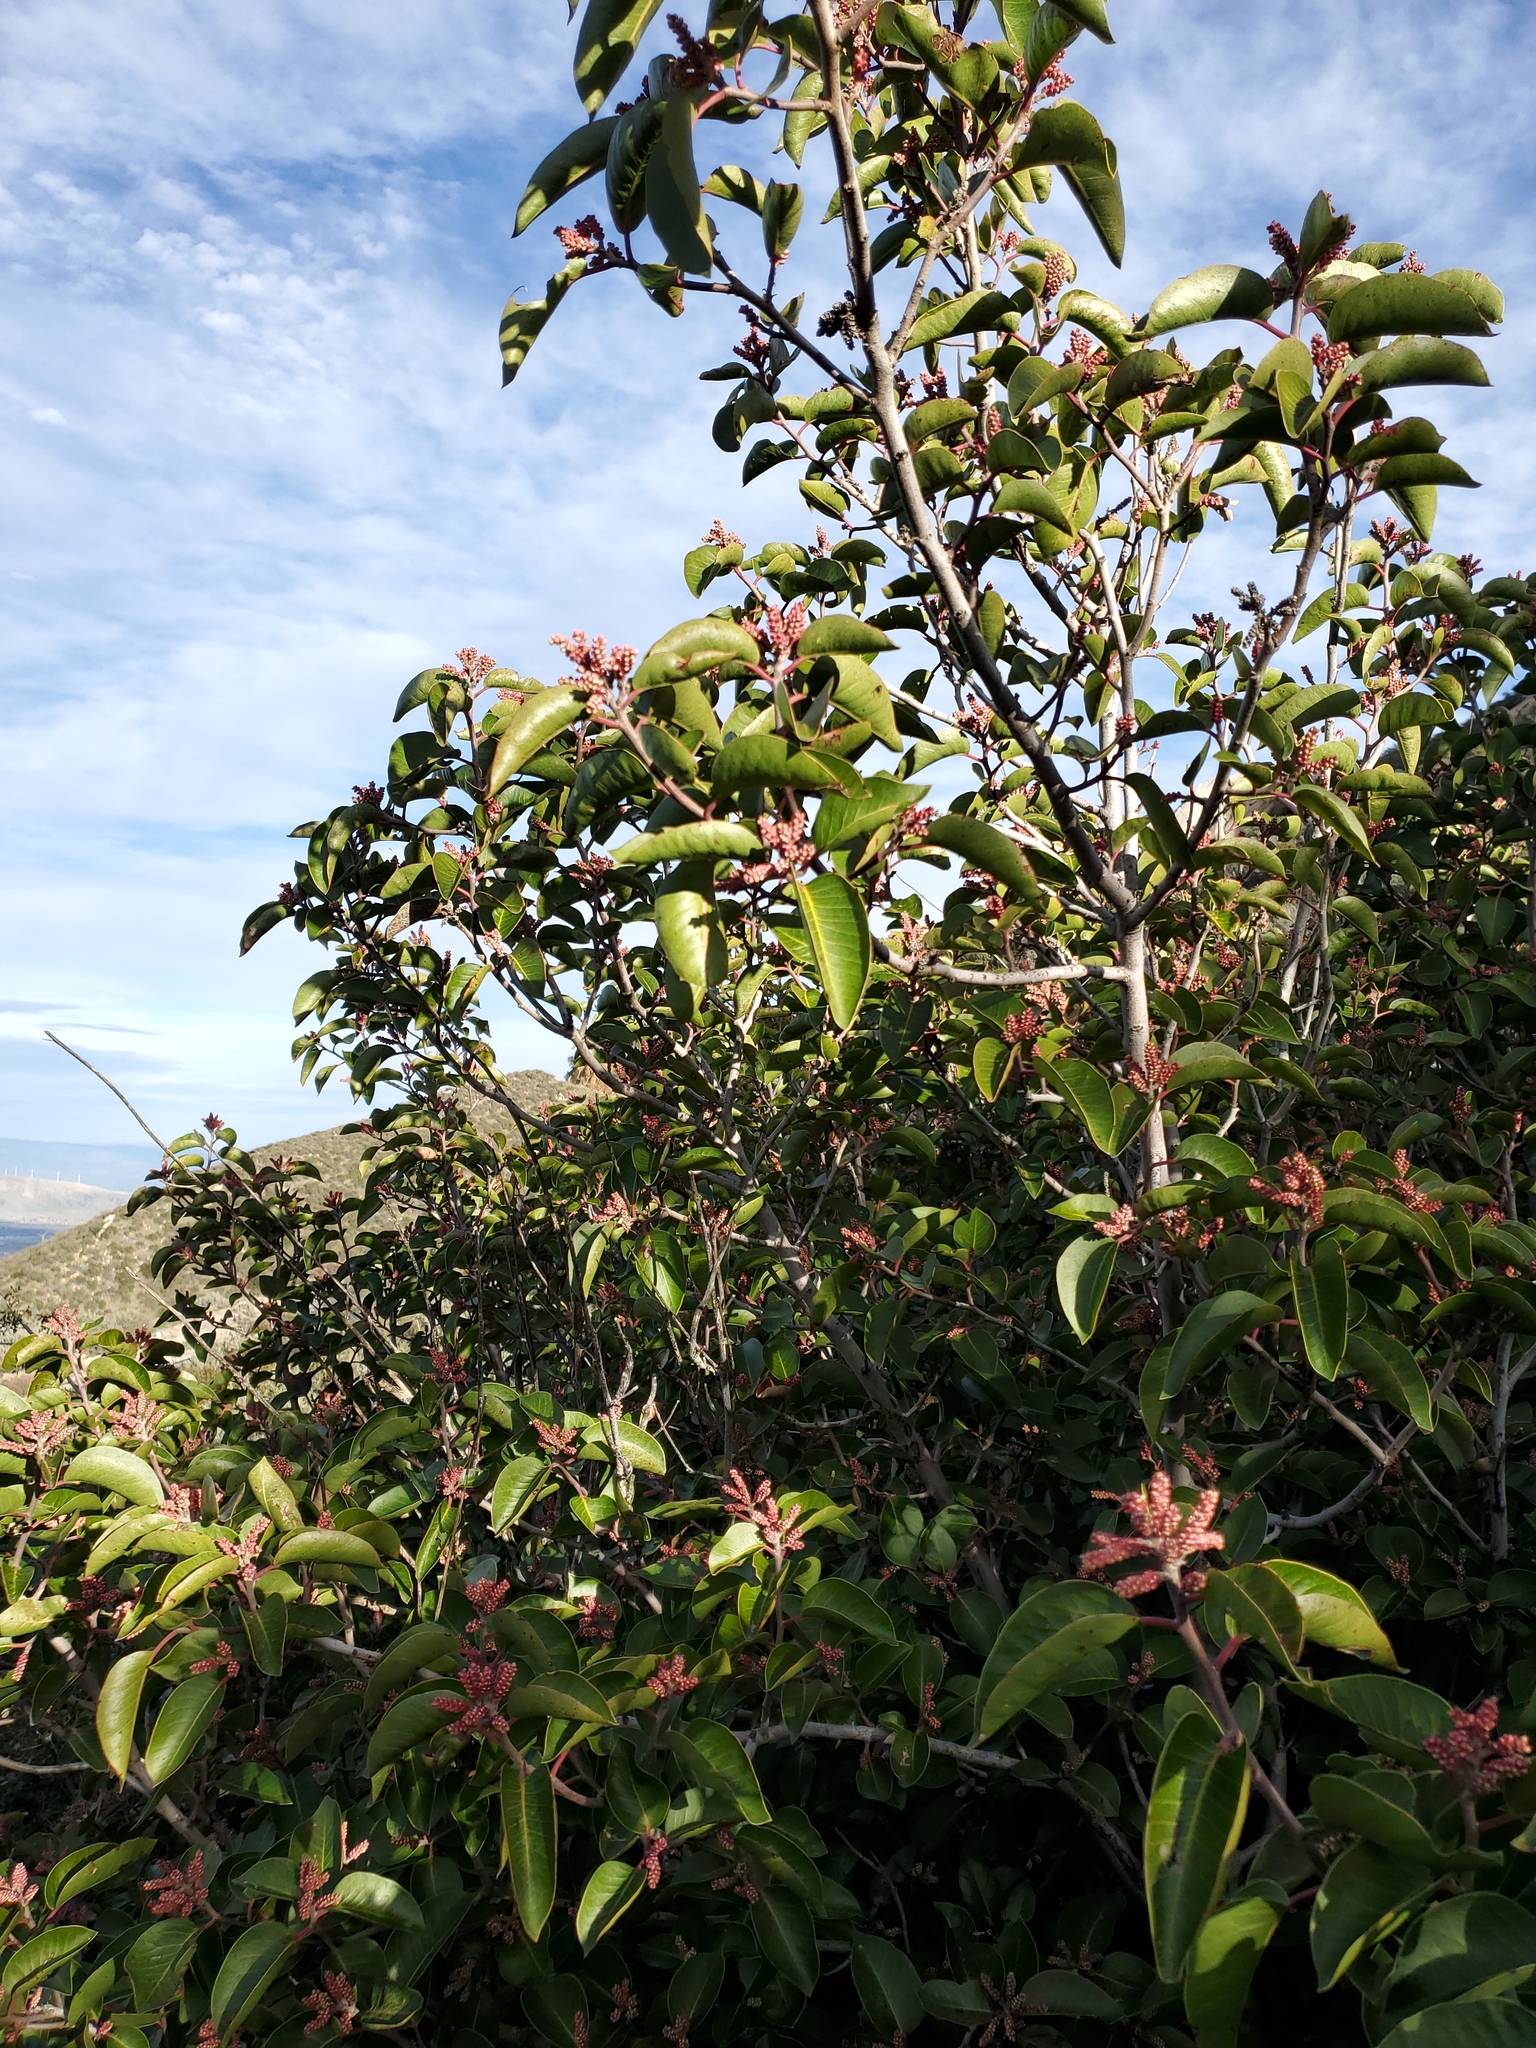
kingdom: Plantae
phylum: Tracheophyta
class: Magnoliopsida
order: Sapindales
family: Anacardiaceae
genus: Rhus
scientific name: Rhus ovata
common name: Sugar sumac
